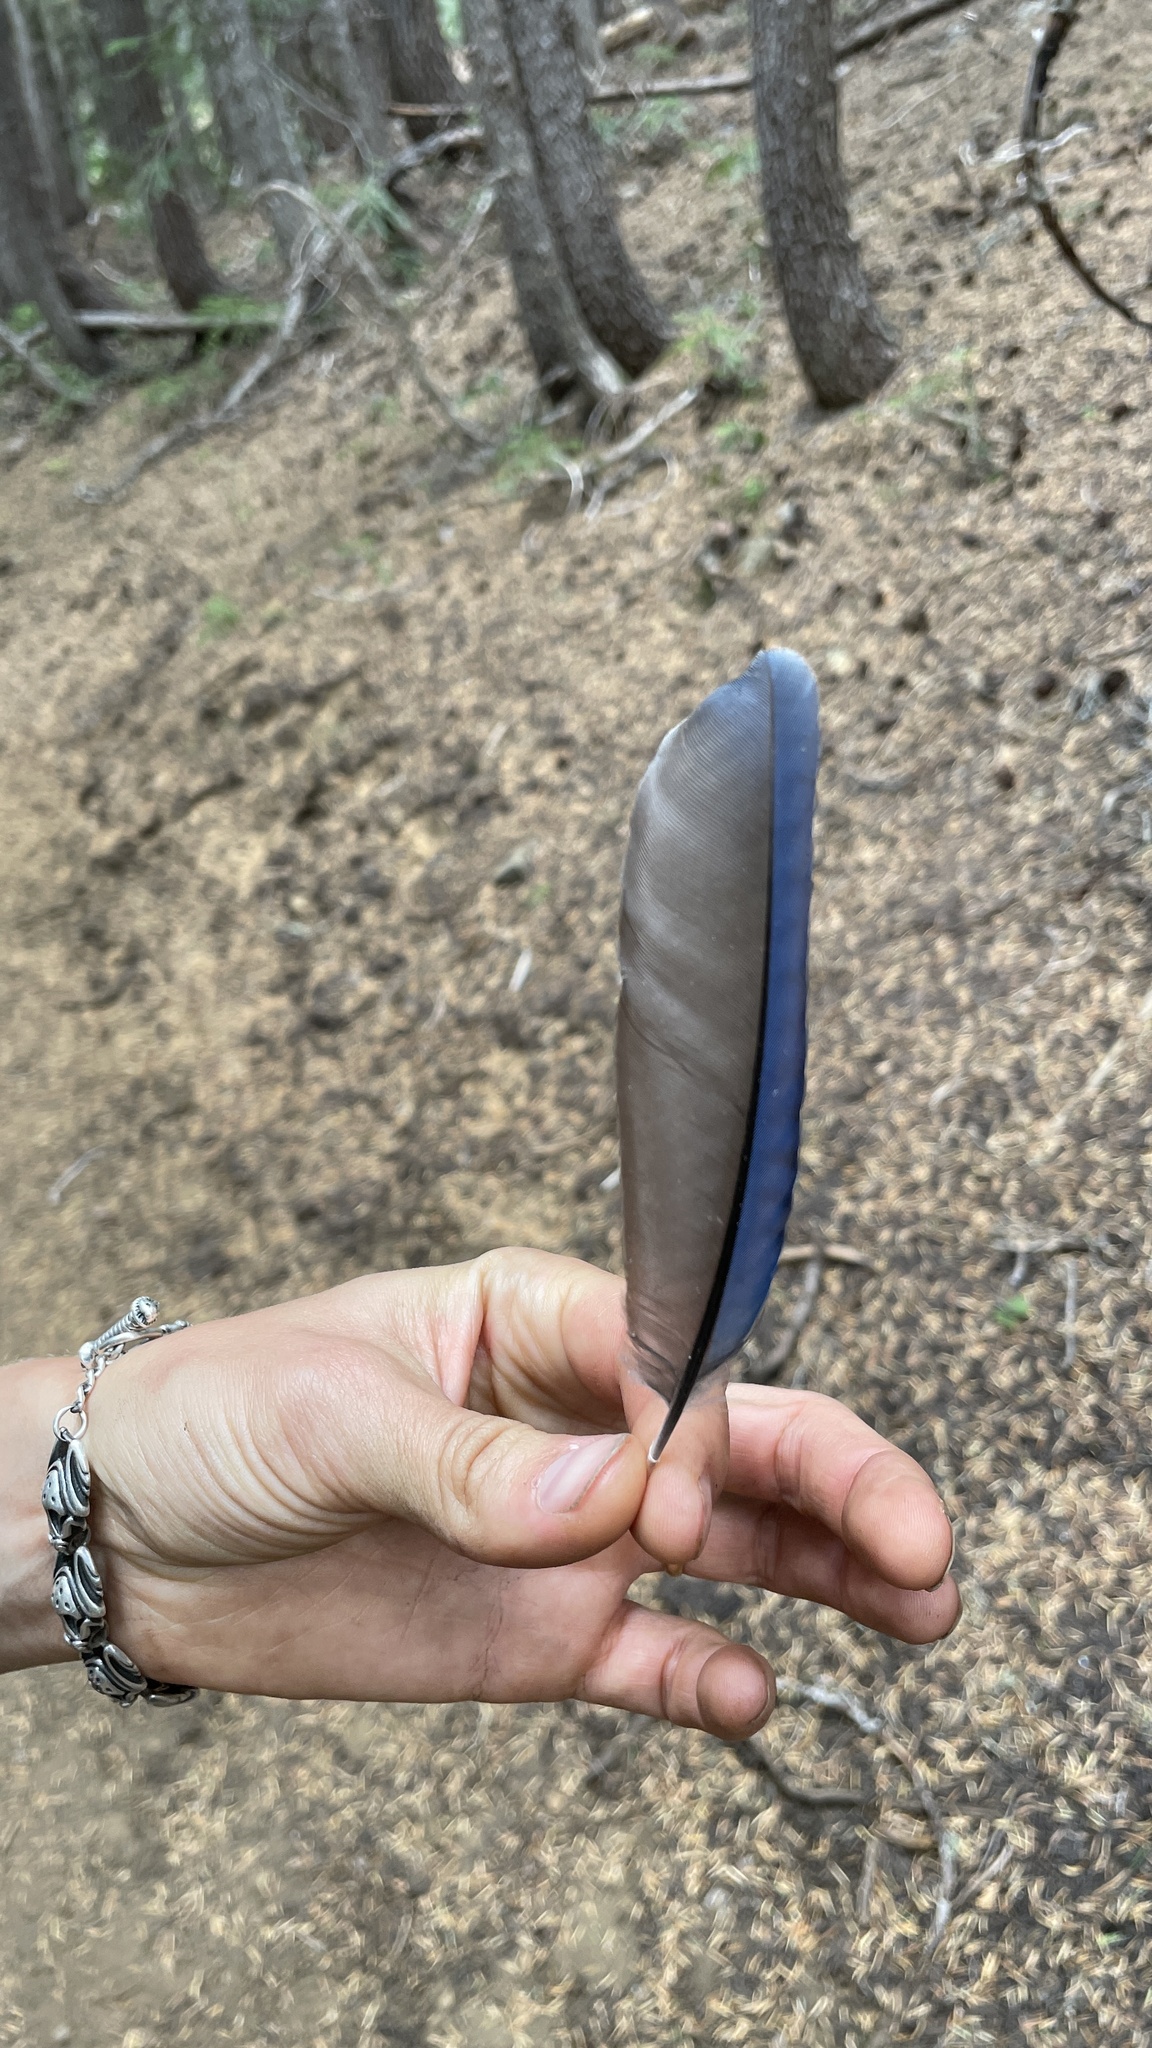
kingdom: Animalia
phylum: Chordata
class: Aves
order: Passeriformes
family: Corvidae
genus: Cyanocitta
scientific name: Cyanocitta stelleri
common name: Steller's jay
